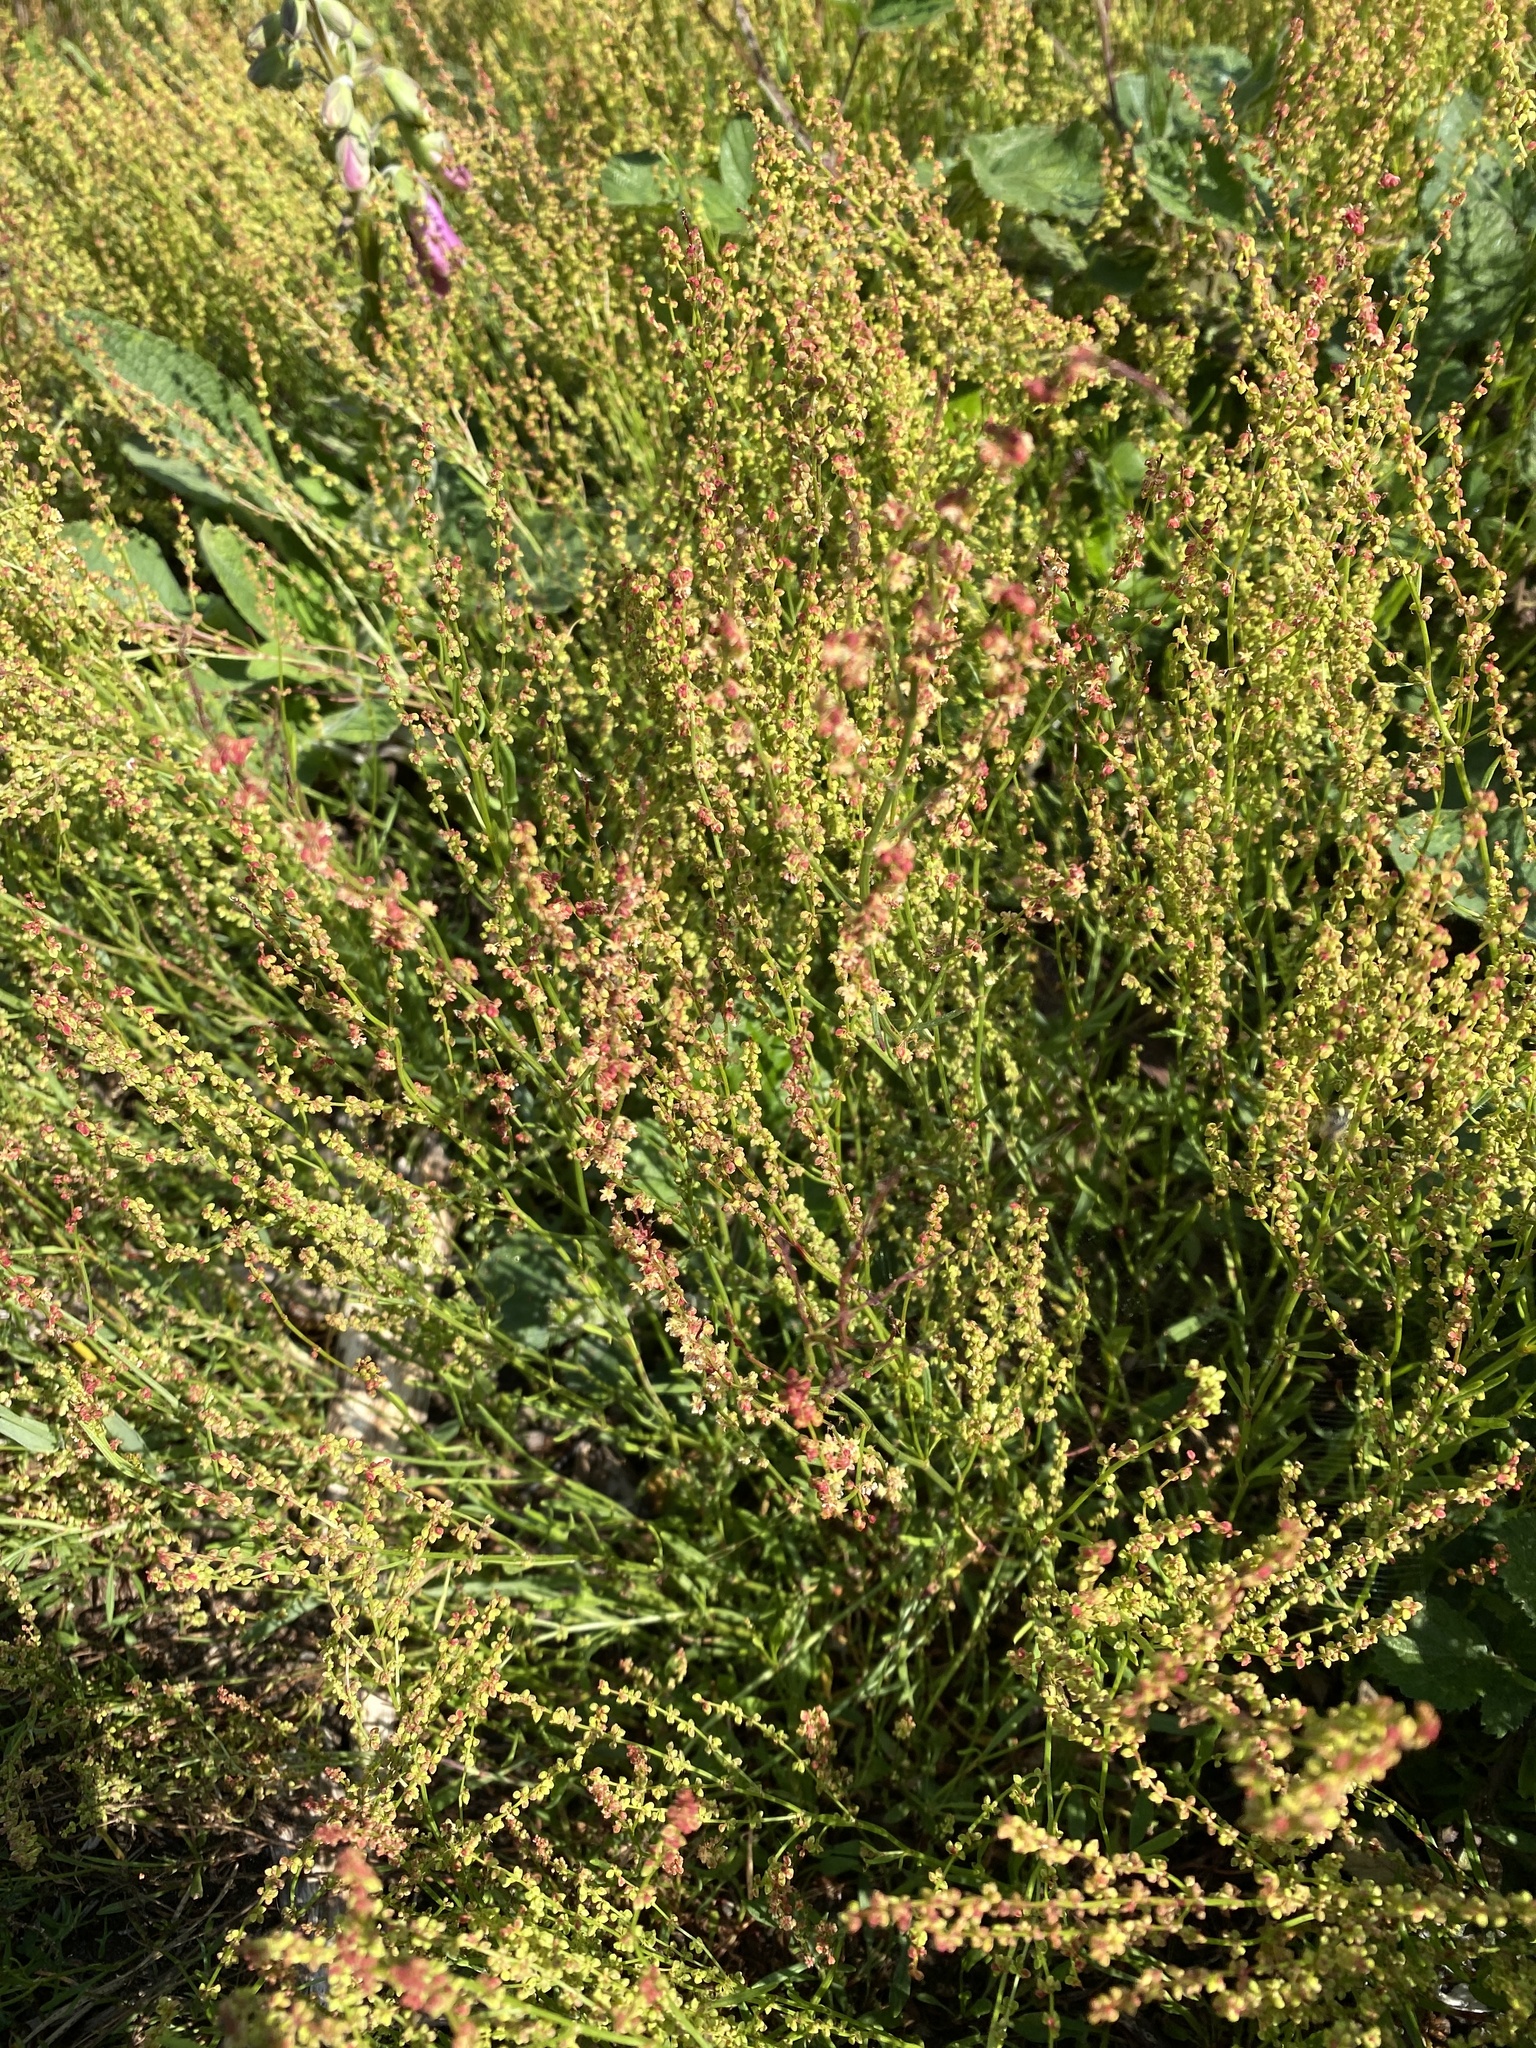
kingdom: Plantae
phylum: Tracheophyta
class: Magnoliopsida
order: Caryophyllales
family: Polygonaceae
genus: Rumex
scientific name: Rumex acetosella
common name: Common sheep sorrel
